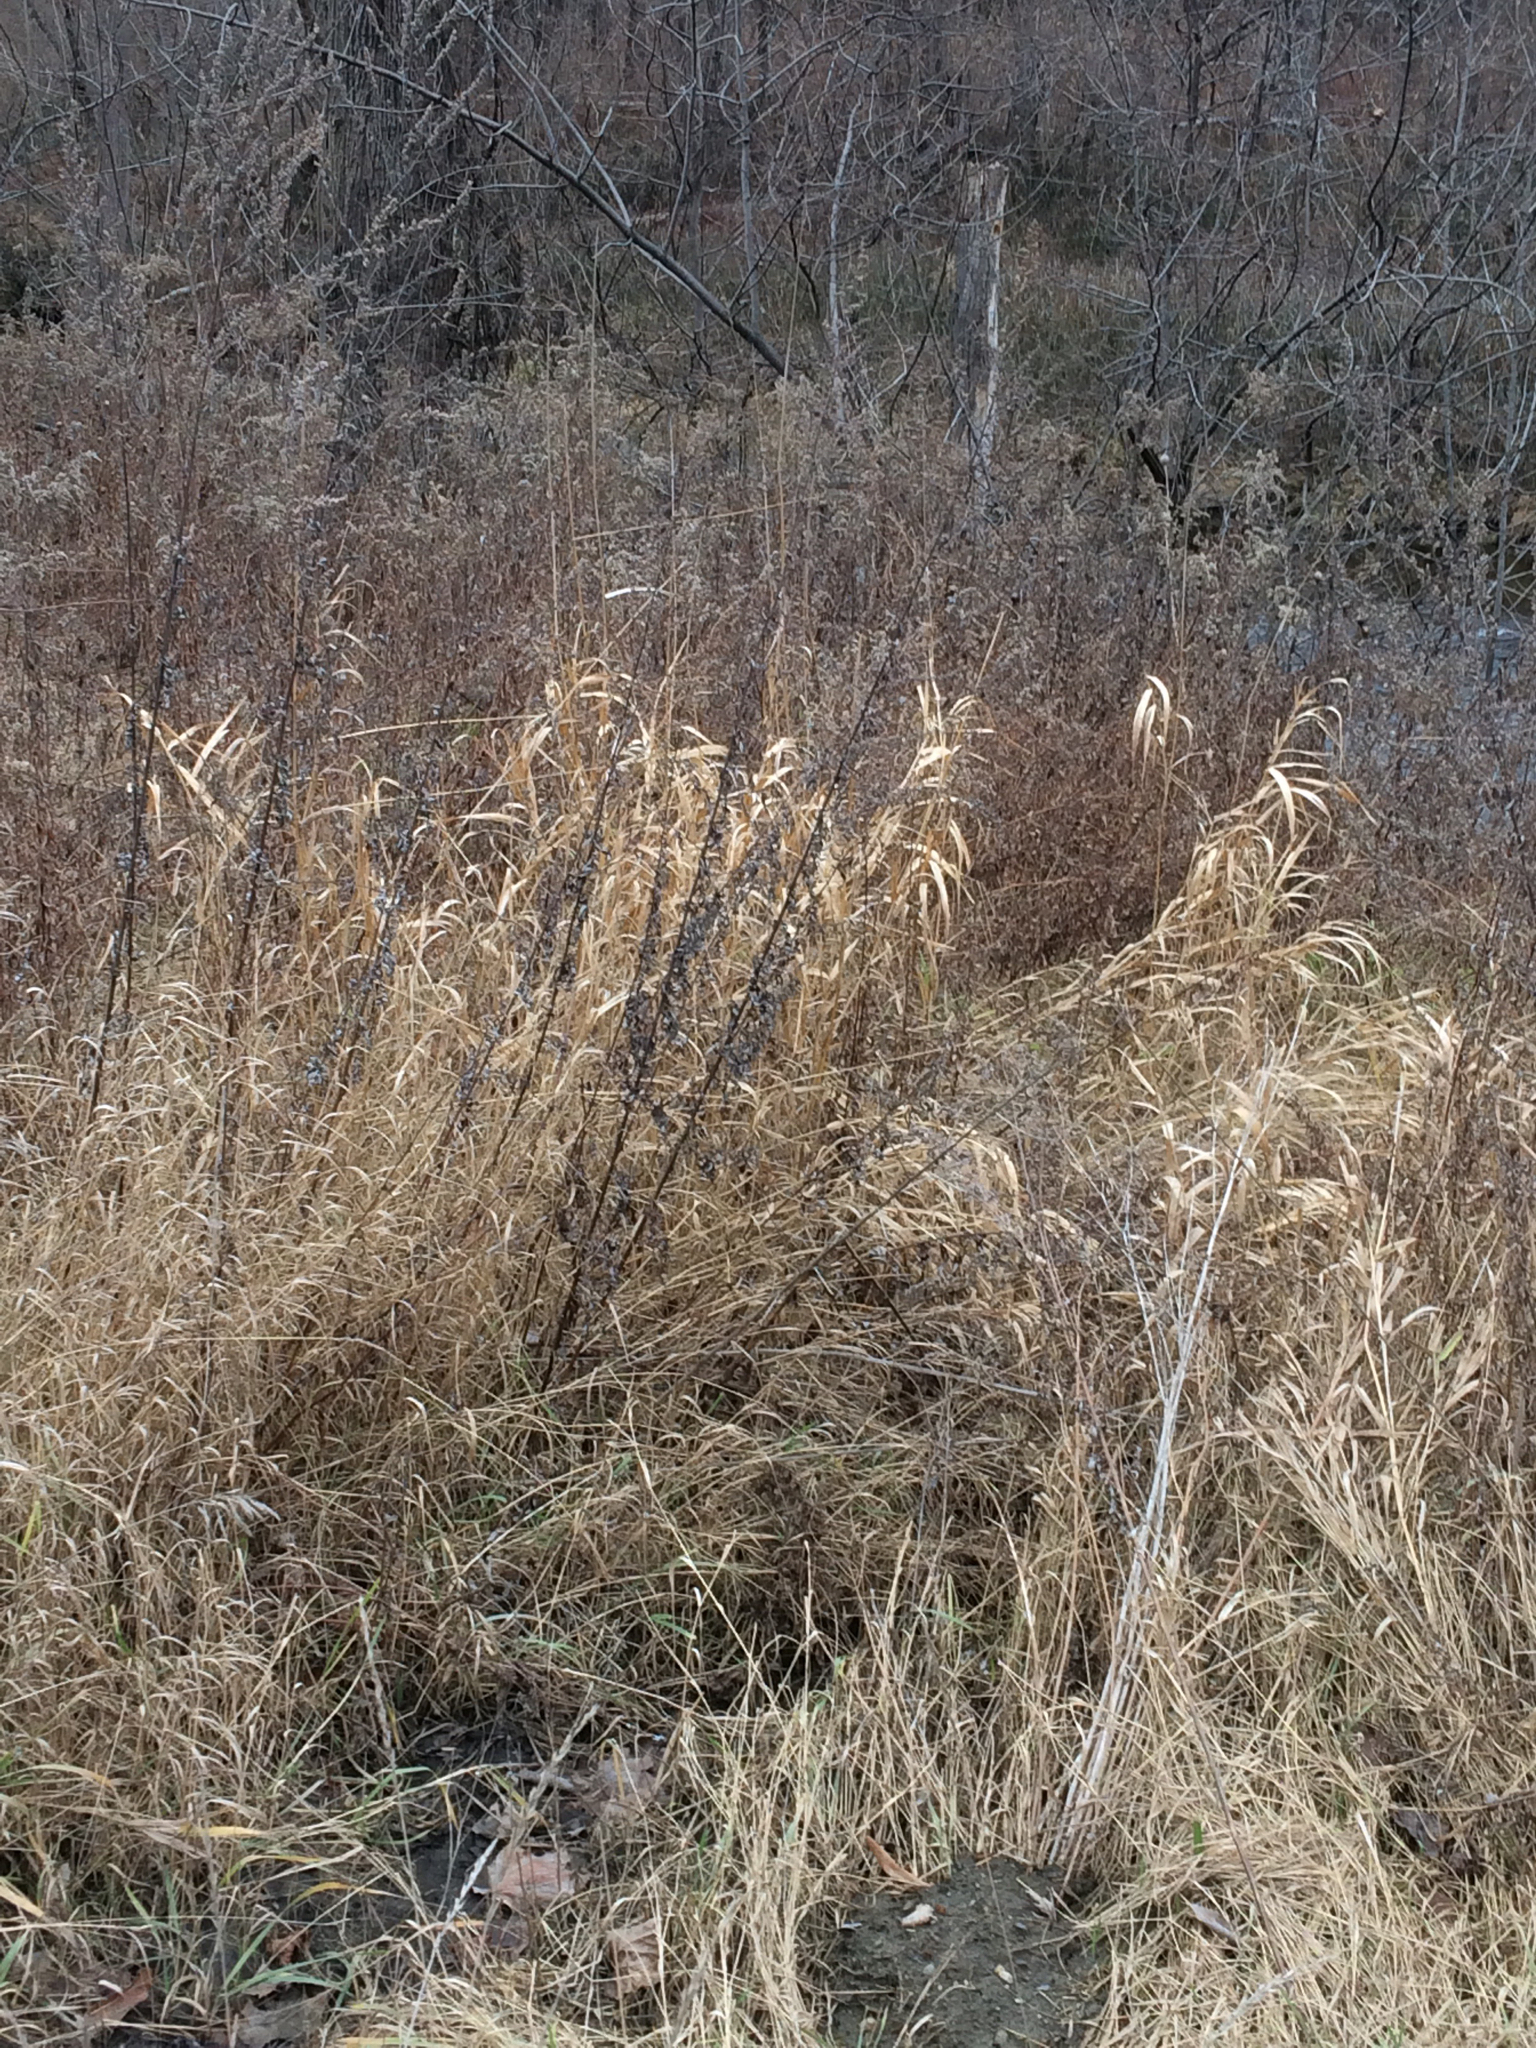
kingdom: Plantae
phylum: Tracheophyta
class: Liliopsida
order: Poales
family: Poaceae
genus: Phalaris
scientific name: Phalaris arundinacea
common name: Reed canary-grass
